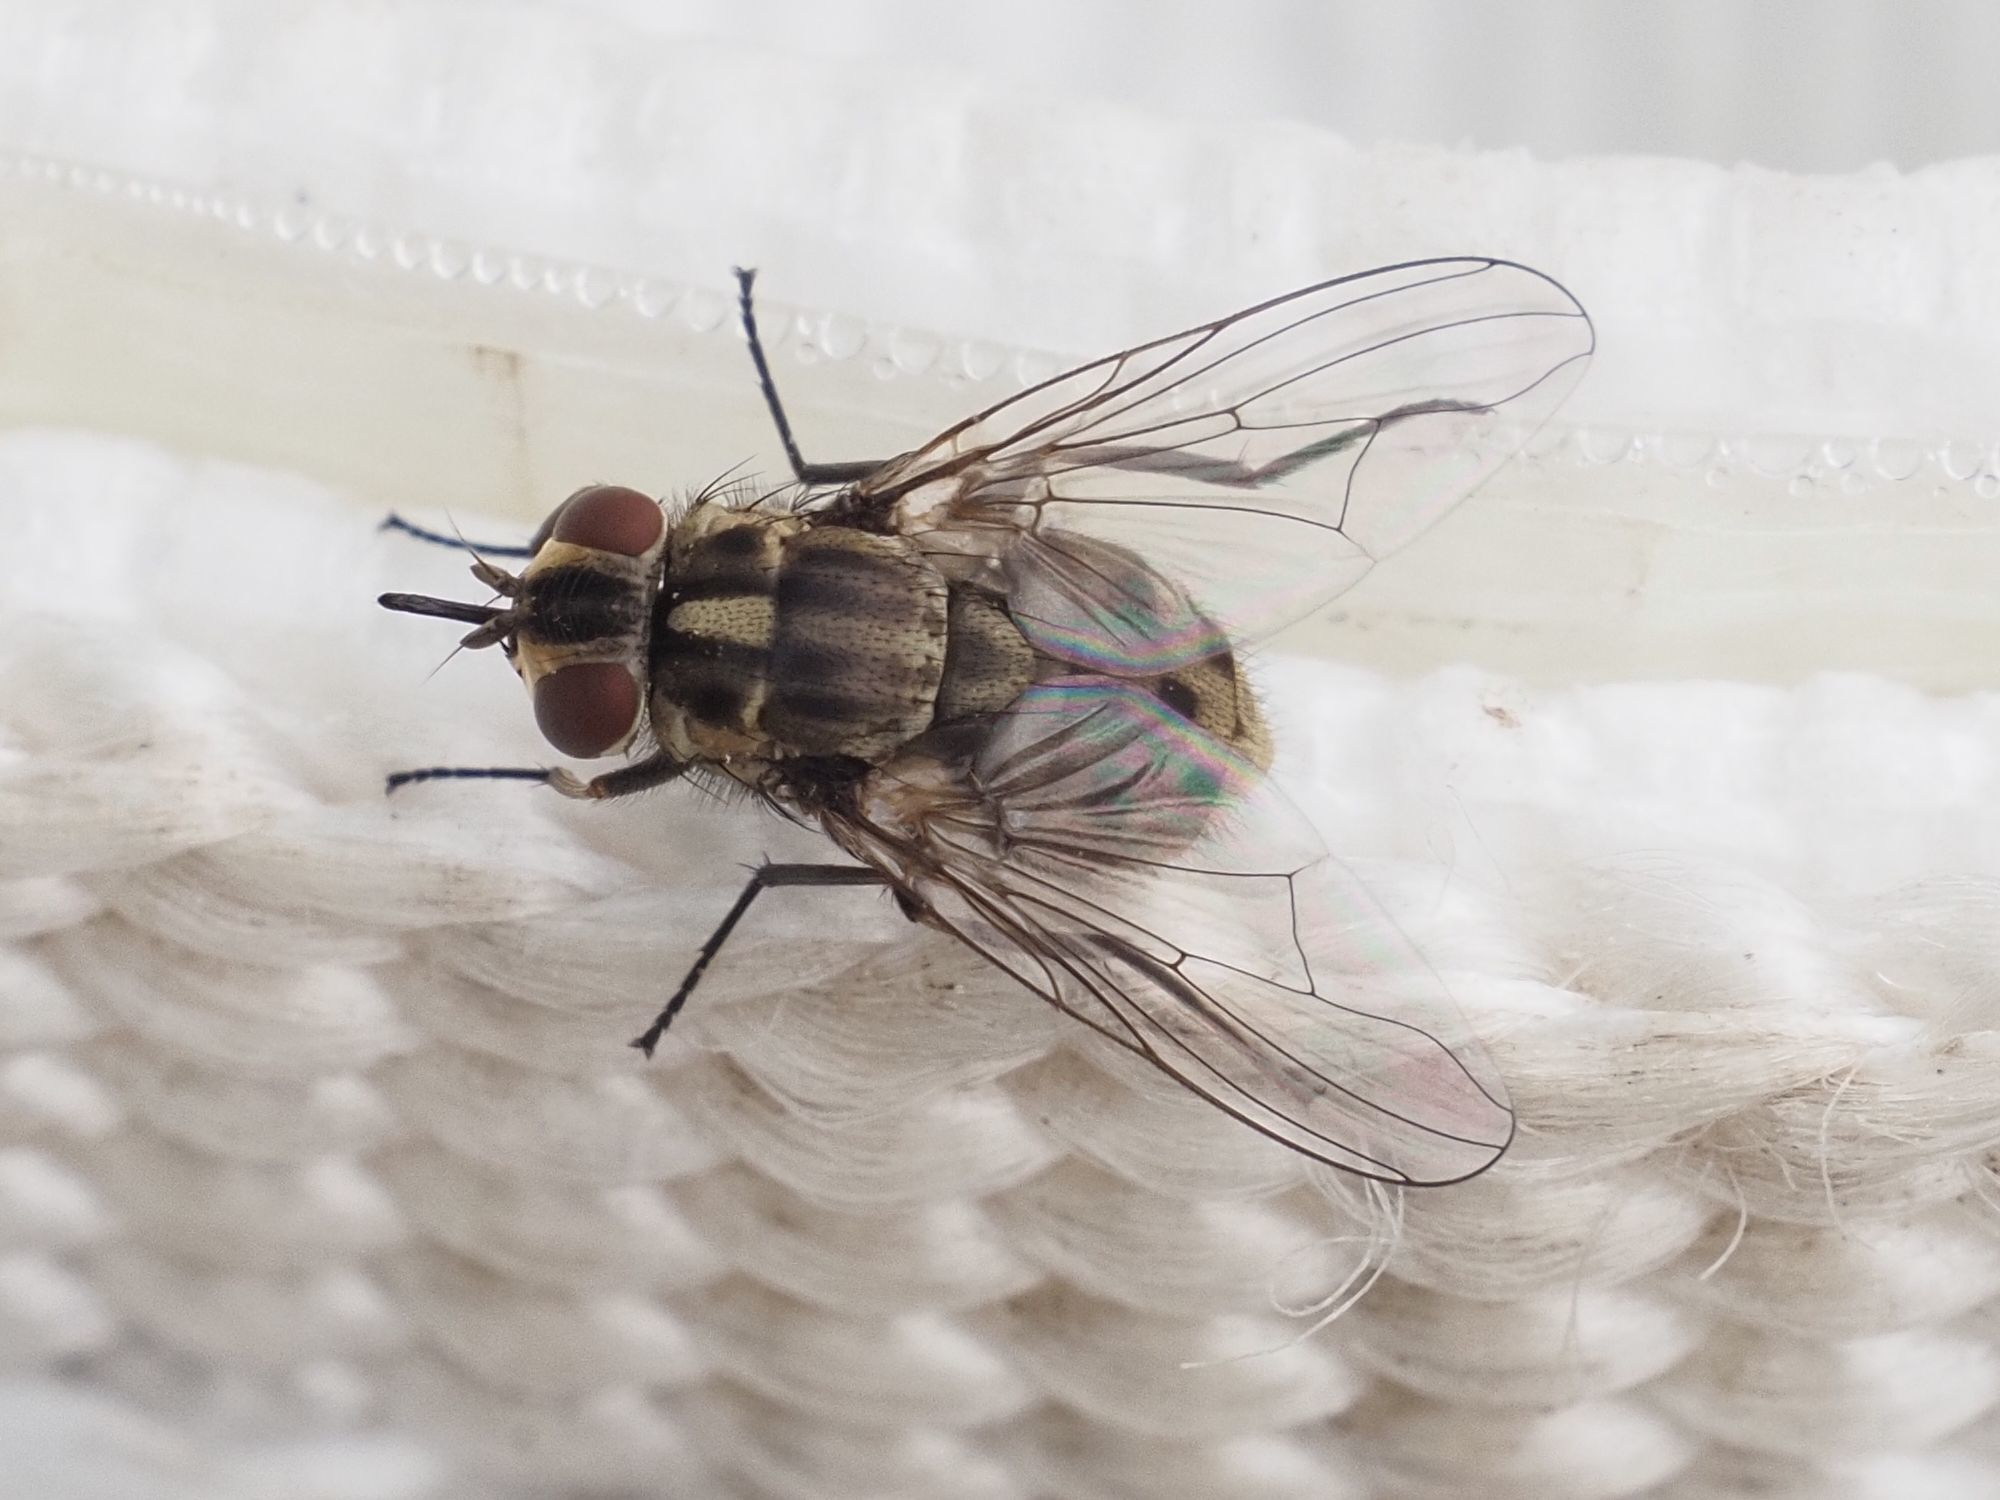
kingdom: Animalia
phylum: Arthropoda
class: Insecta
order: Diptera
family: Muscidae
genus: Stomoxys
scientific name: Stomoxys calcitrans
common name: Stable fly
